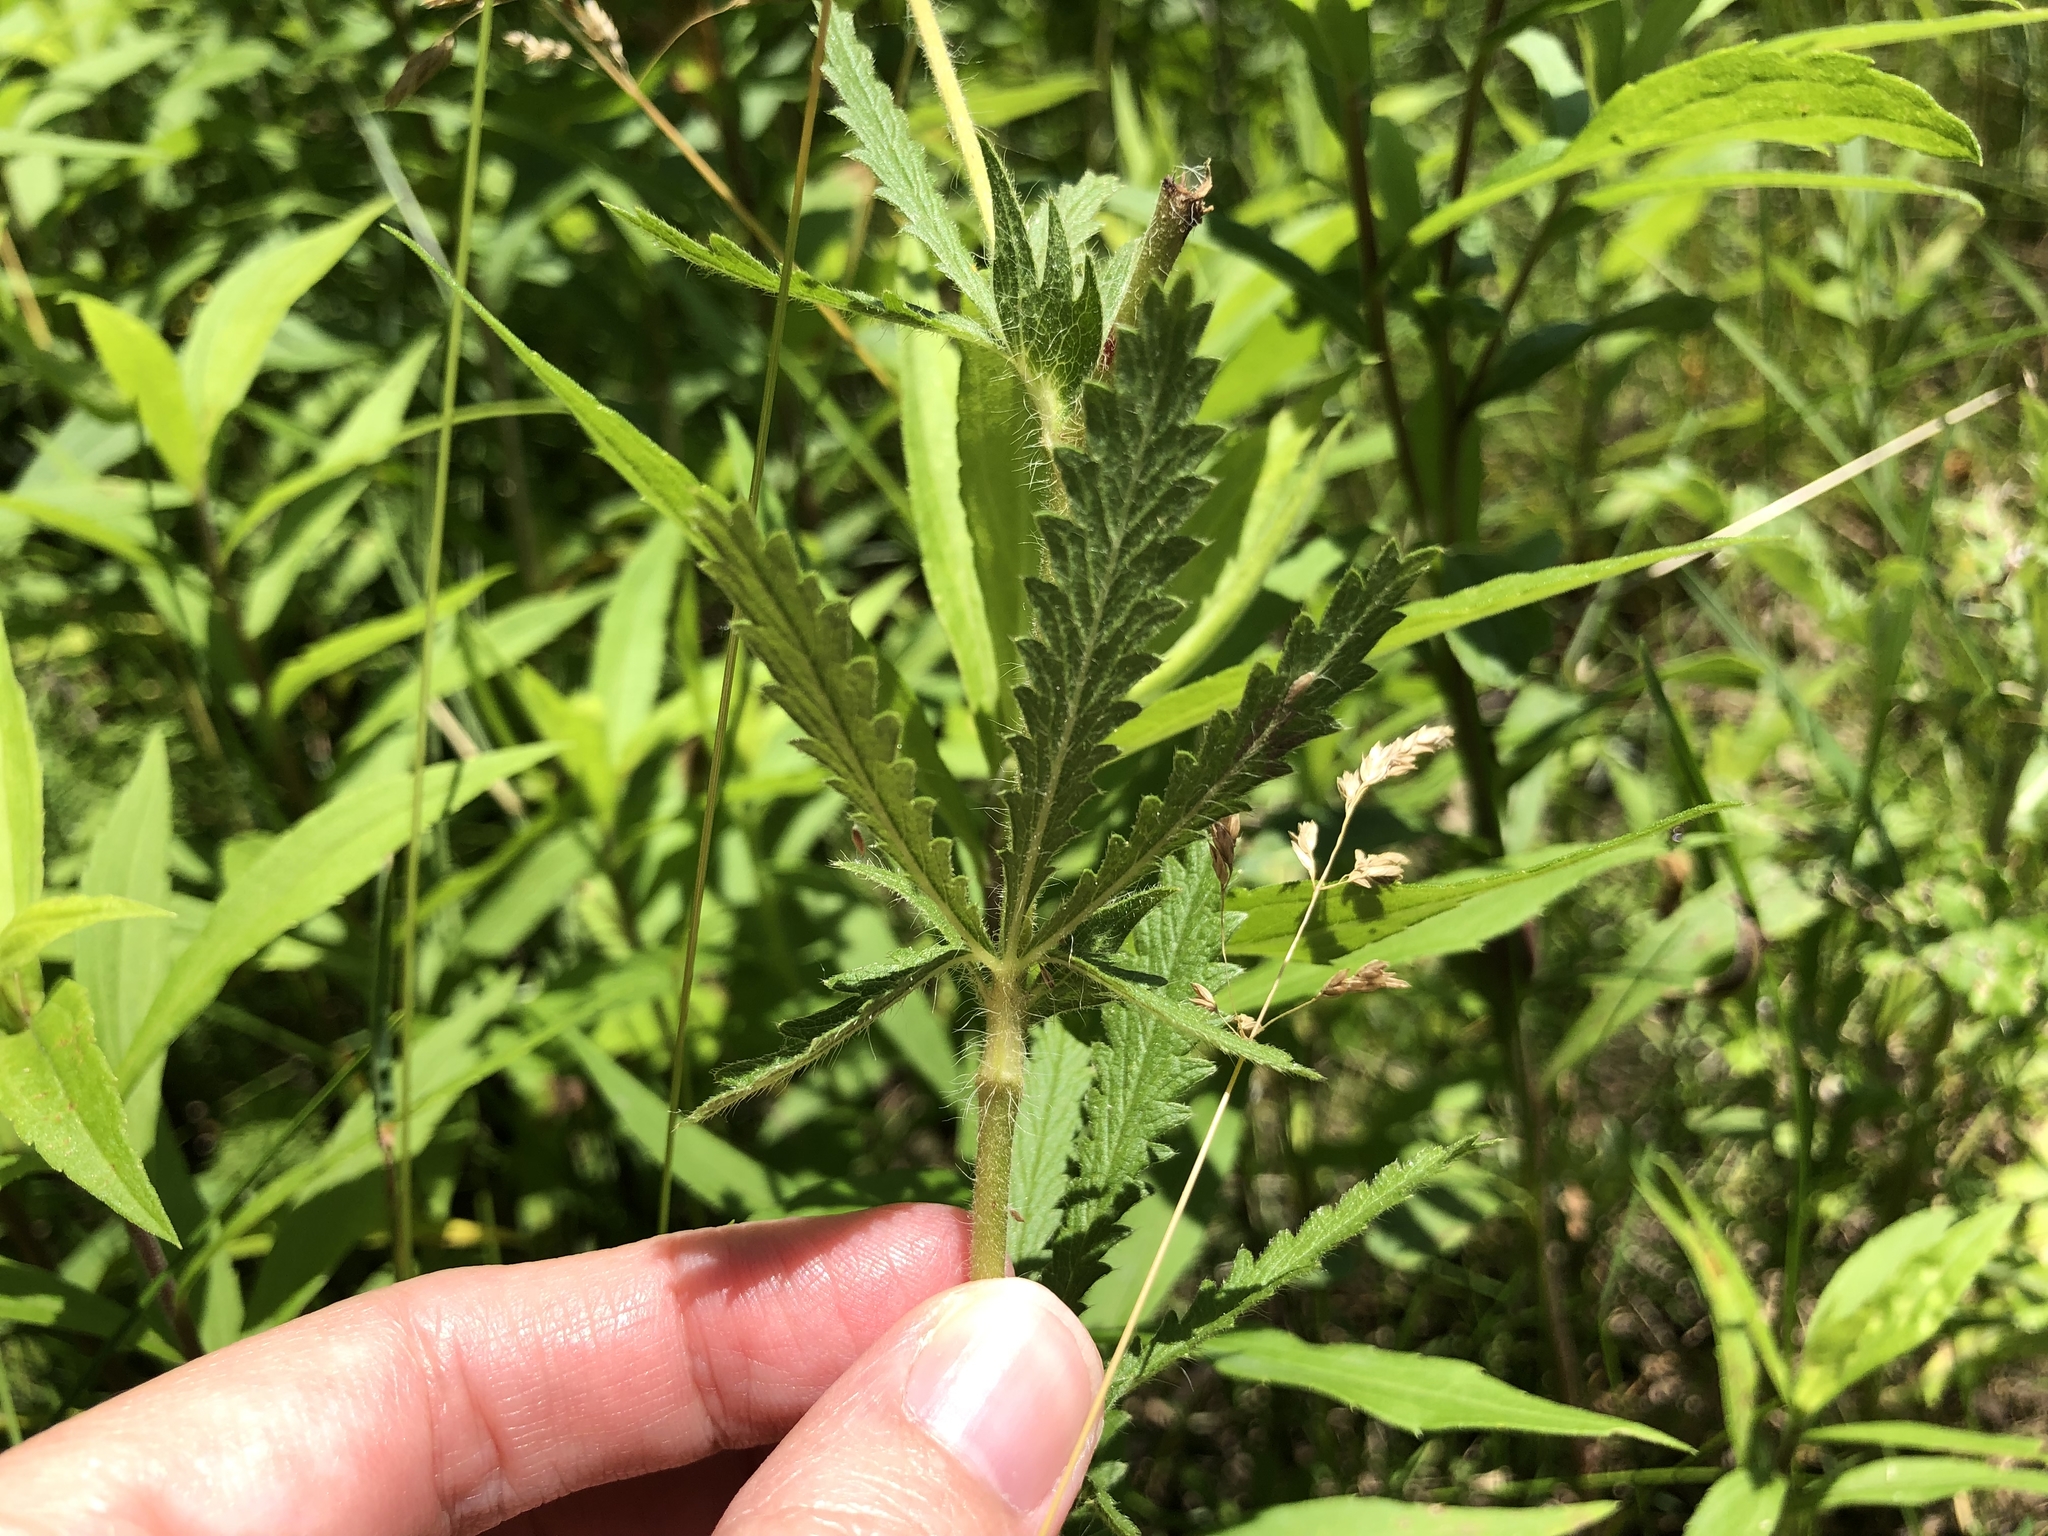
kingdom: Plantae
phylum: Tracheophyta
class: Magnoliopsida
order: Rosales
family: Rosaceae
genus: Potentilla
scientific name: Potentilla recta
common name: Sulphur cinquefoil
